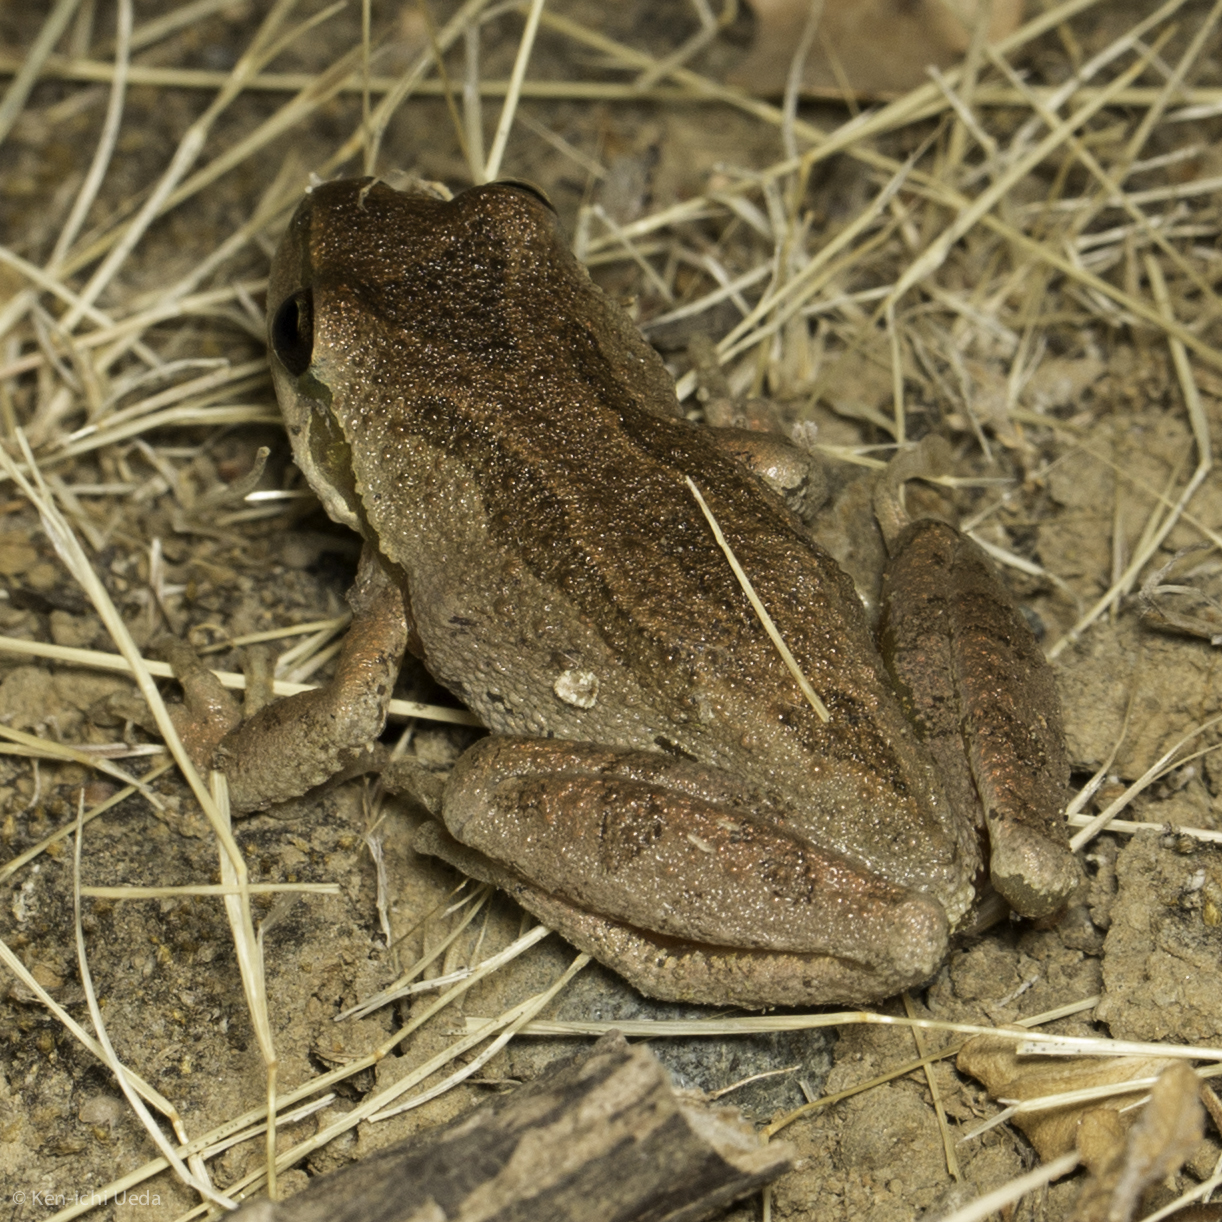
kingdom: Animalia
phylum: Chordata
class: Amphibia
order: Anura
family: Hylidae
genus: Pseudacris
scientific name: Pseudacris regilla
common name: Pacific chorus frog
